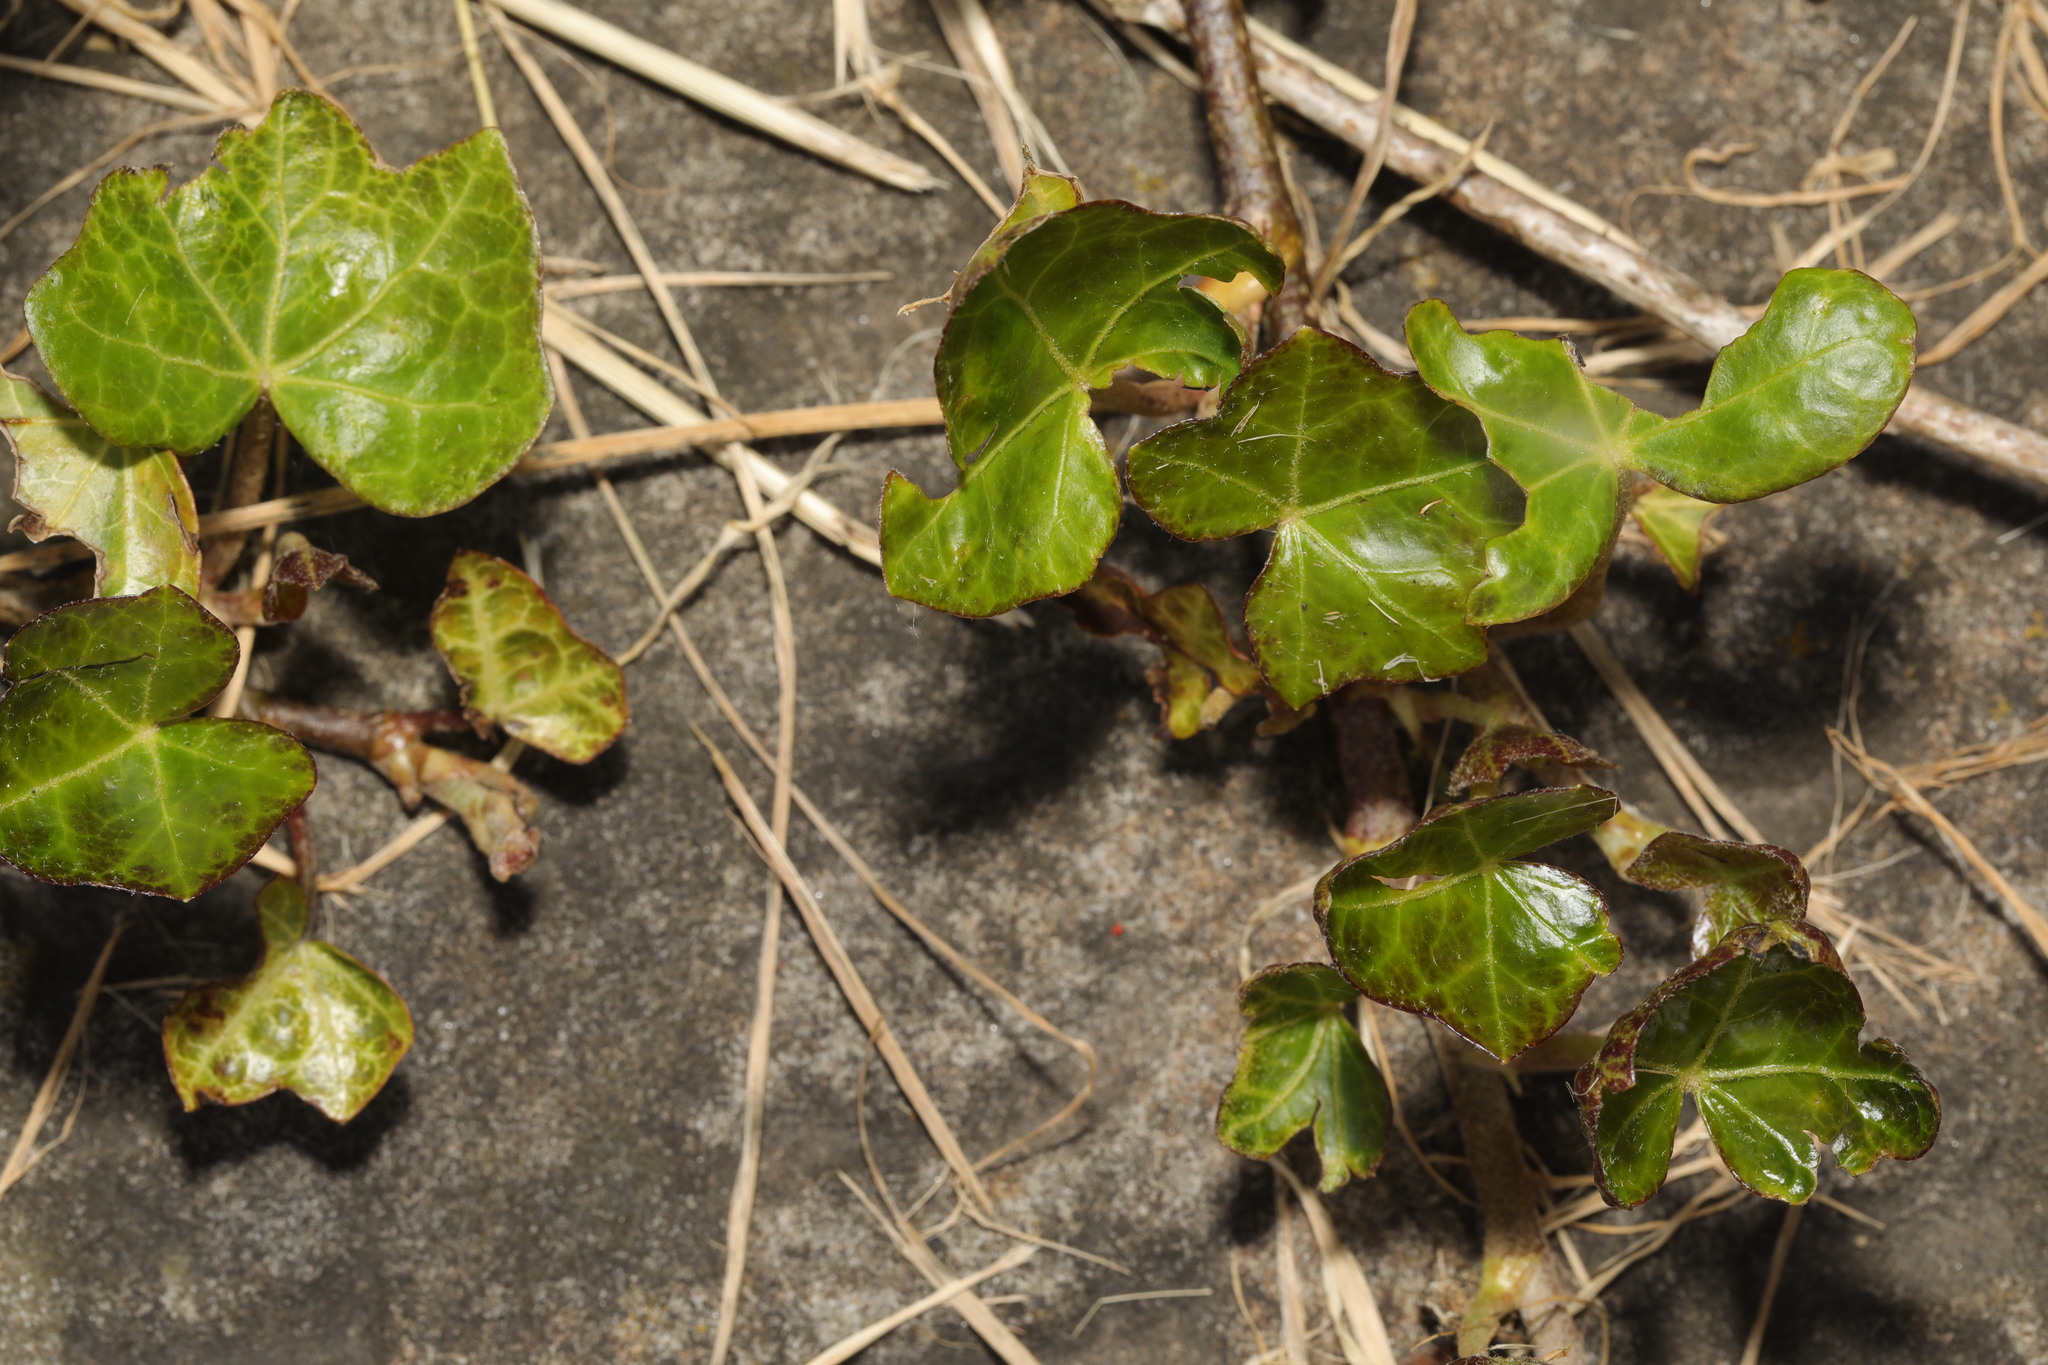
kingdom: Plantae
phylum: Tracheophyta
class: Magnoliopsida
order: Apiales
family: Araliaceae
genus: Hedera
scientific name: Hedera helix
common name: Ivy
